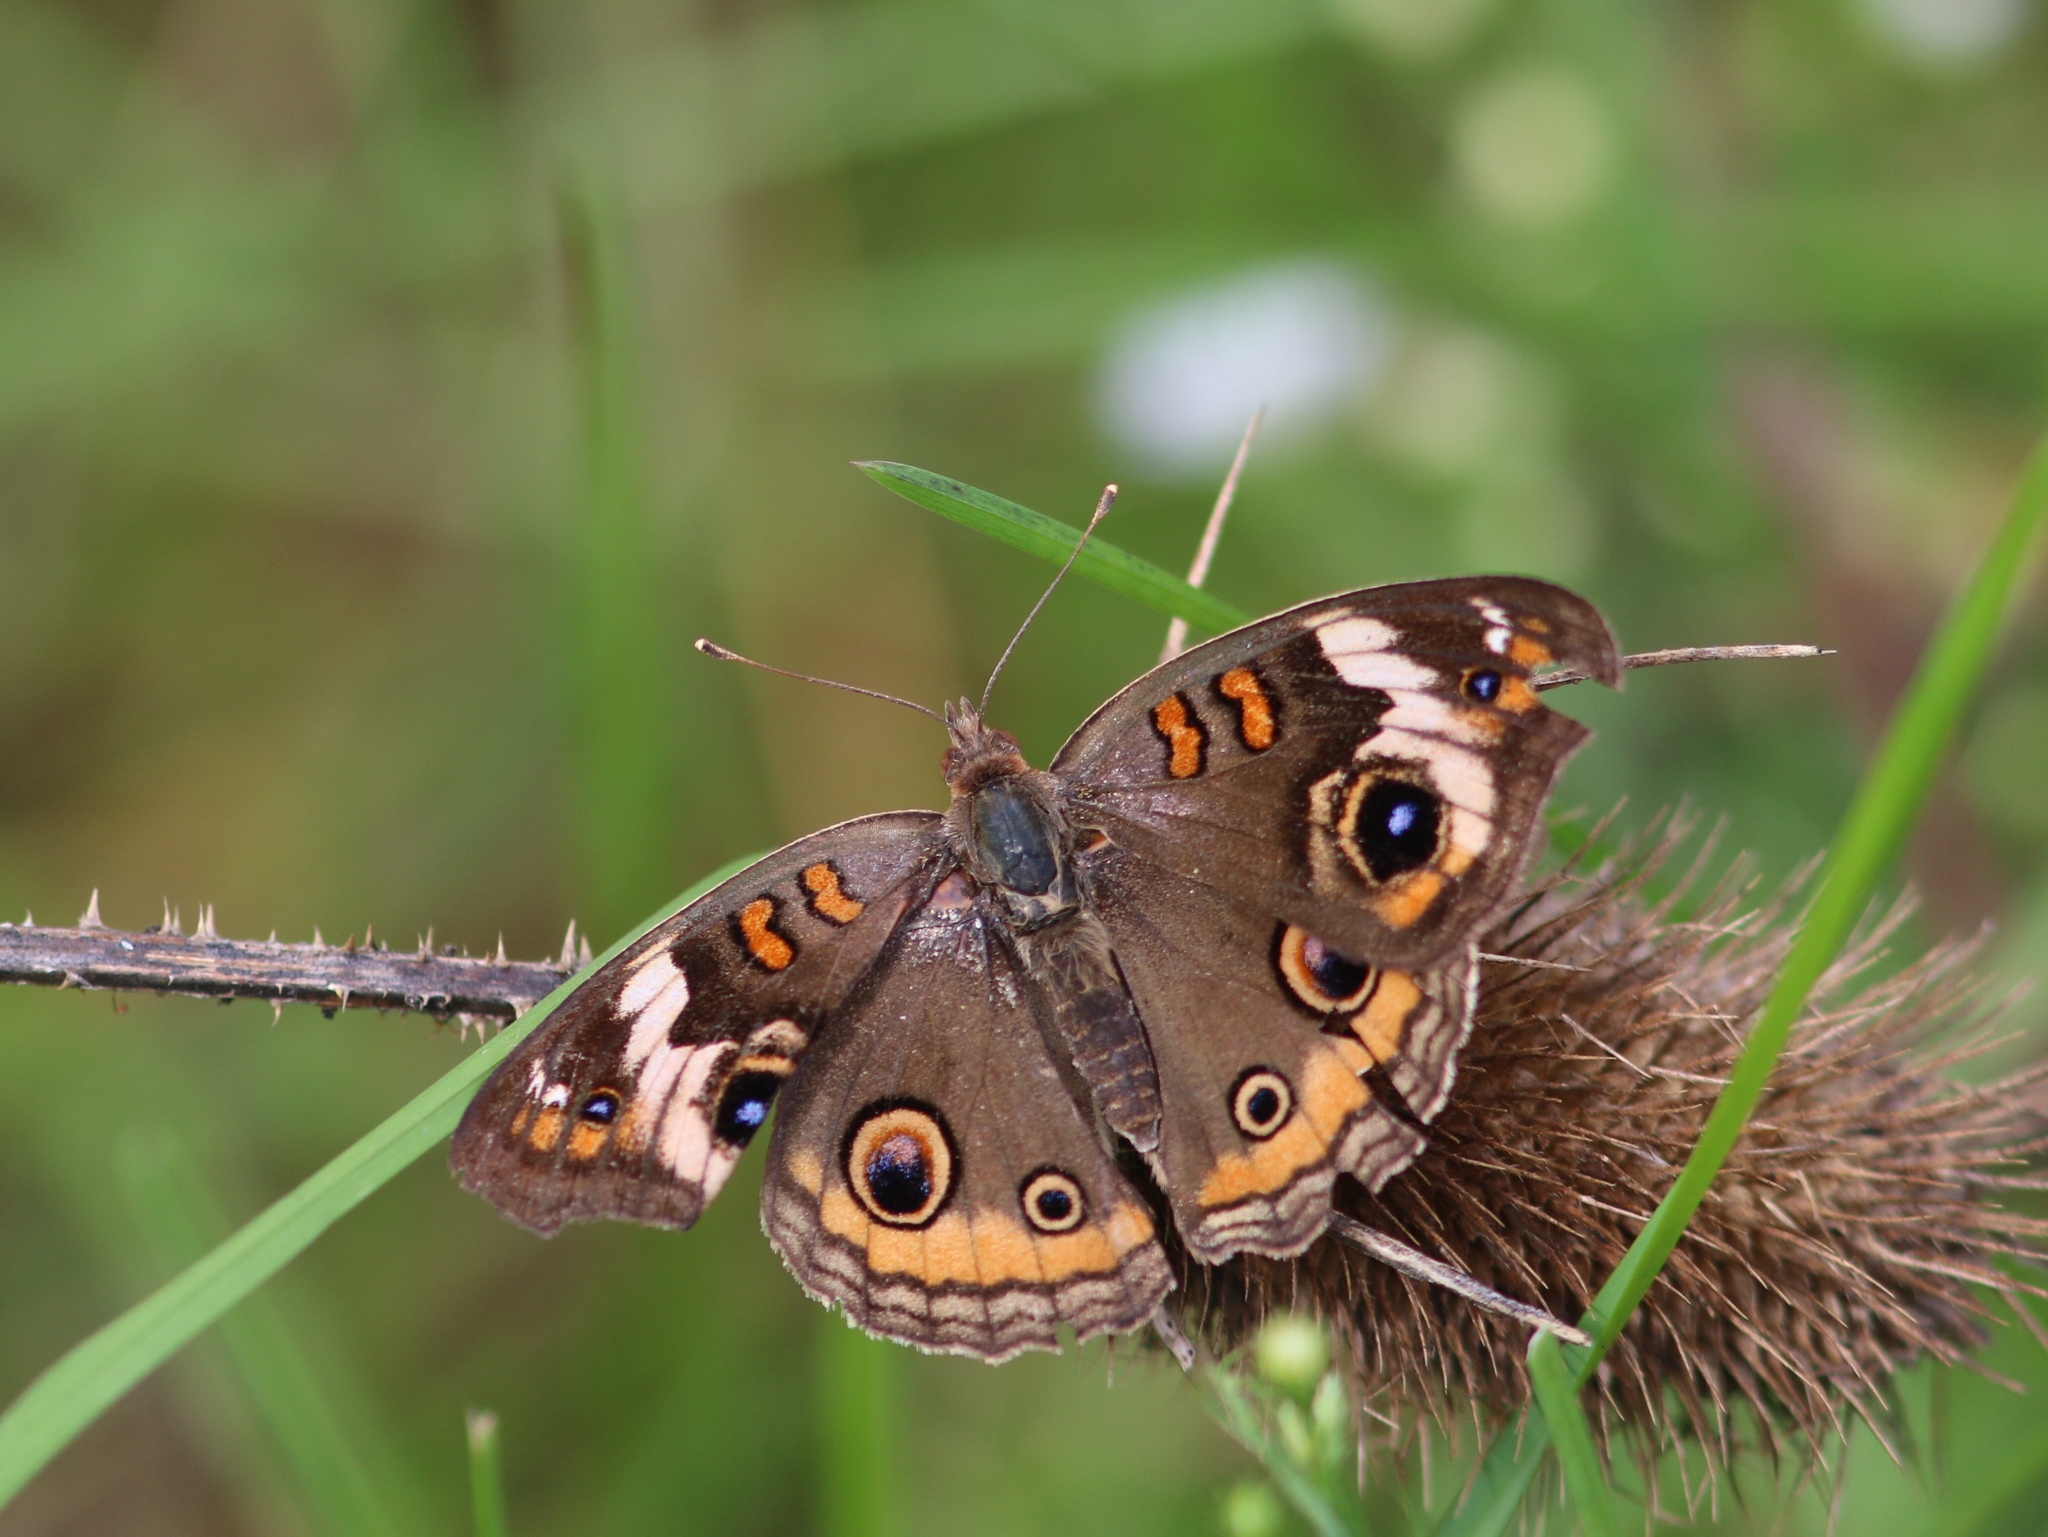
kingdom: Animalia
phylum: Arthropoda
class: Insecta
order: Lepidoptera
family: Nymphalidae
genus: Junonia
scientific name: Junonia coenia
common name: Common buckeye
